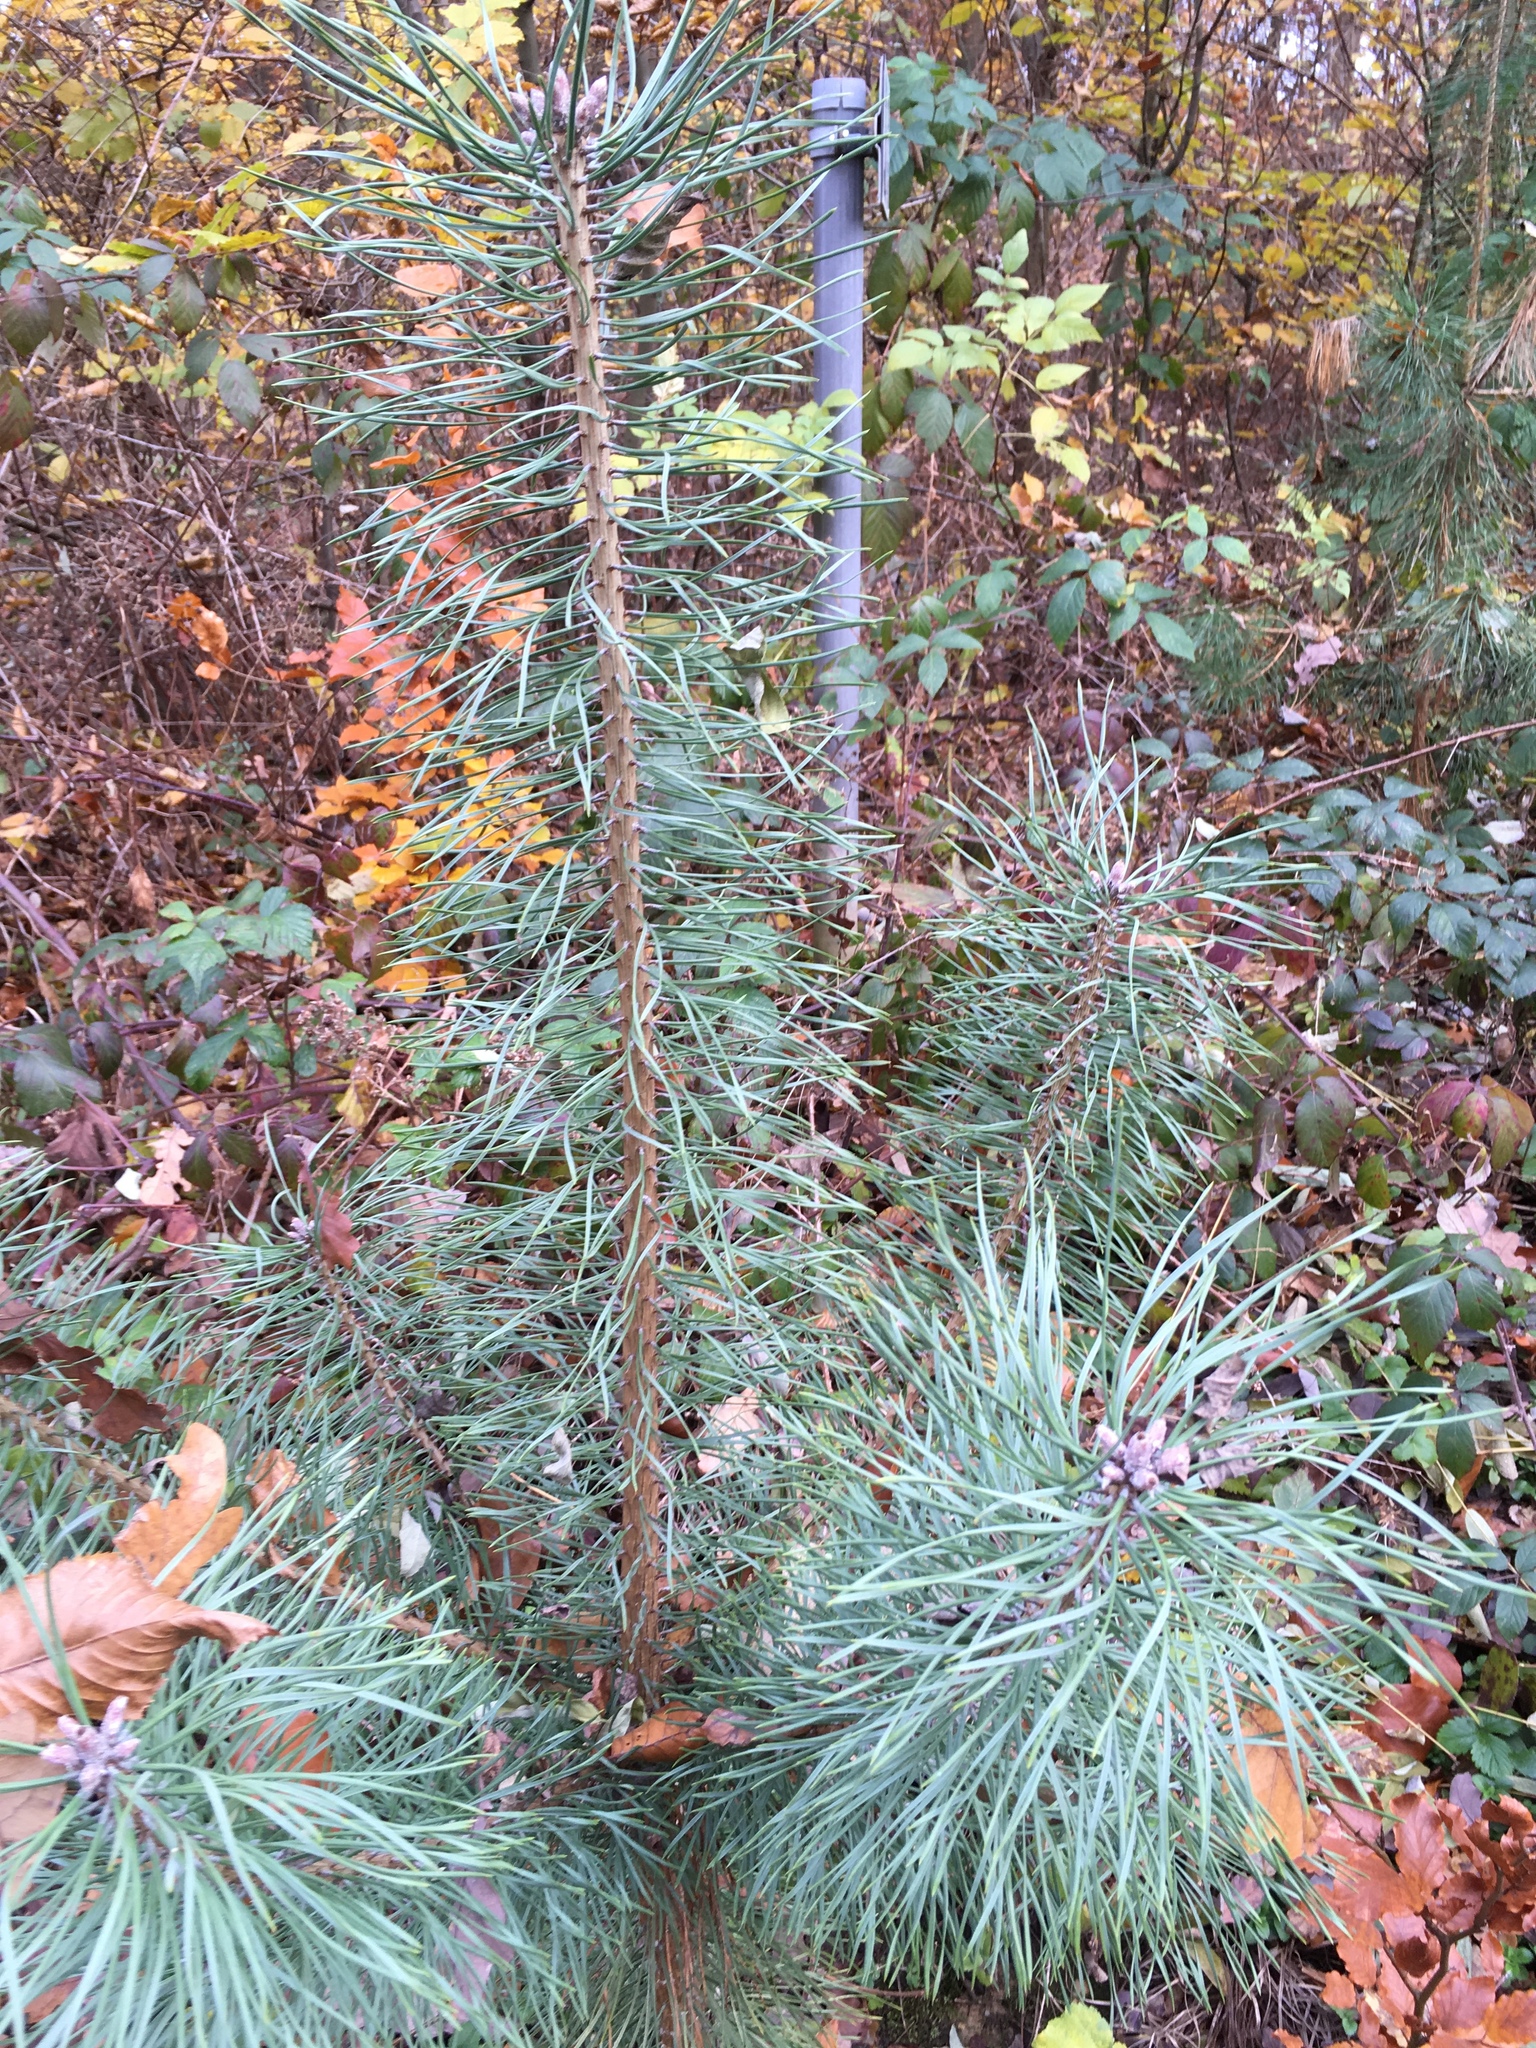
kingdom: Plantae
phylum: Tracheophyta
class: Pinopsida
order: Pinales
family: Pinaceae
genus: Pinus
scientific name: Pinus sylvestris
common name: Scots pine
